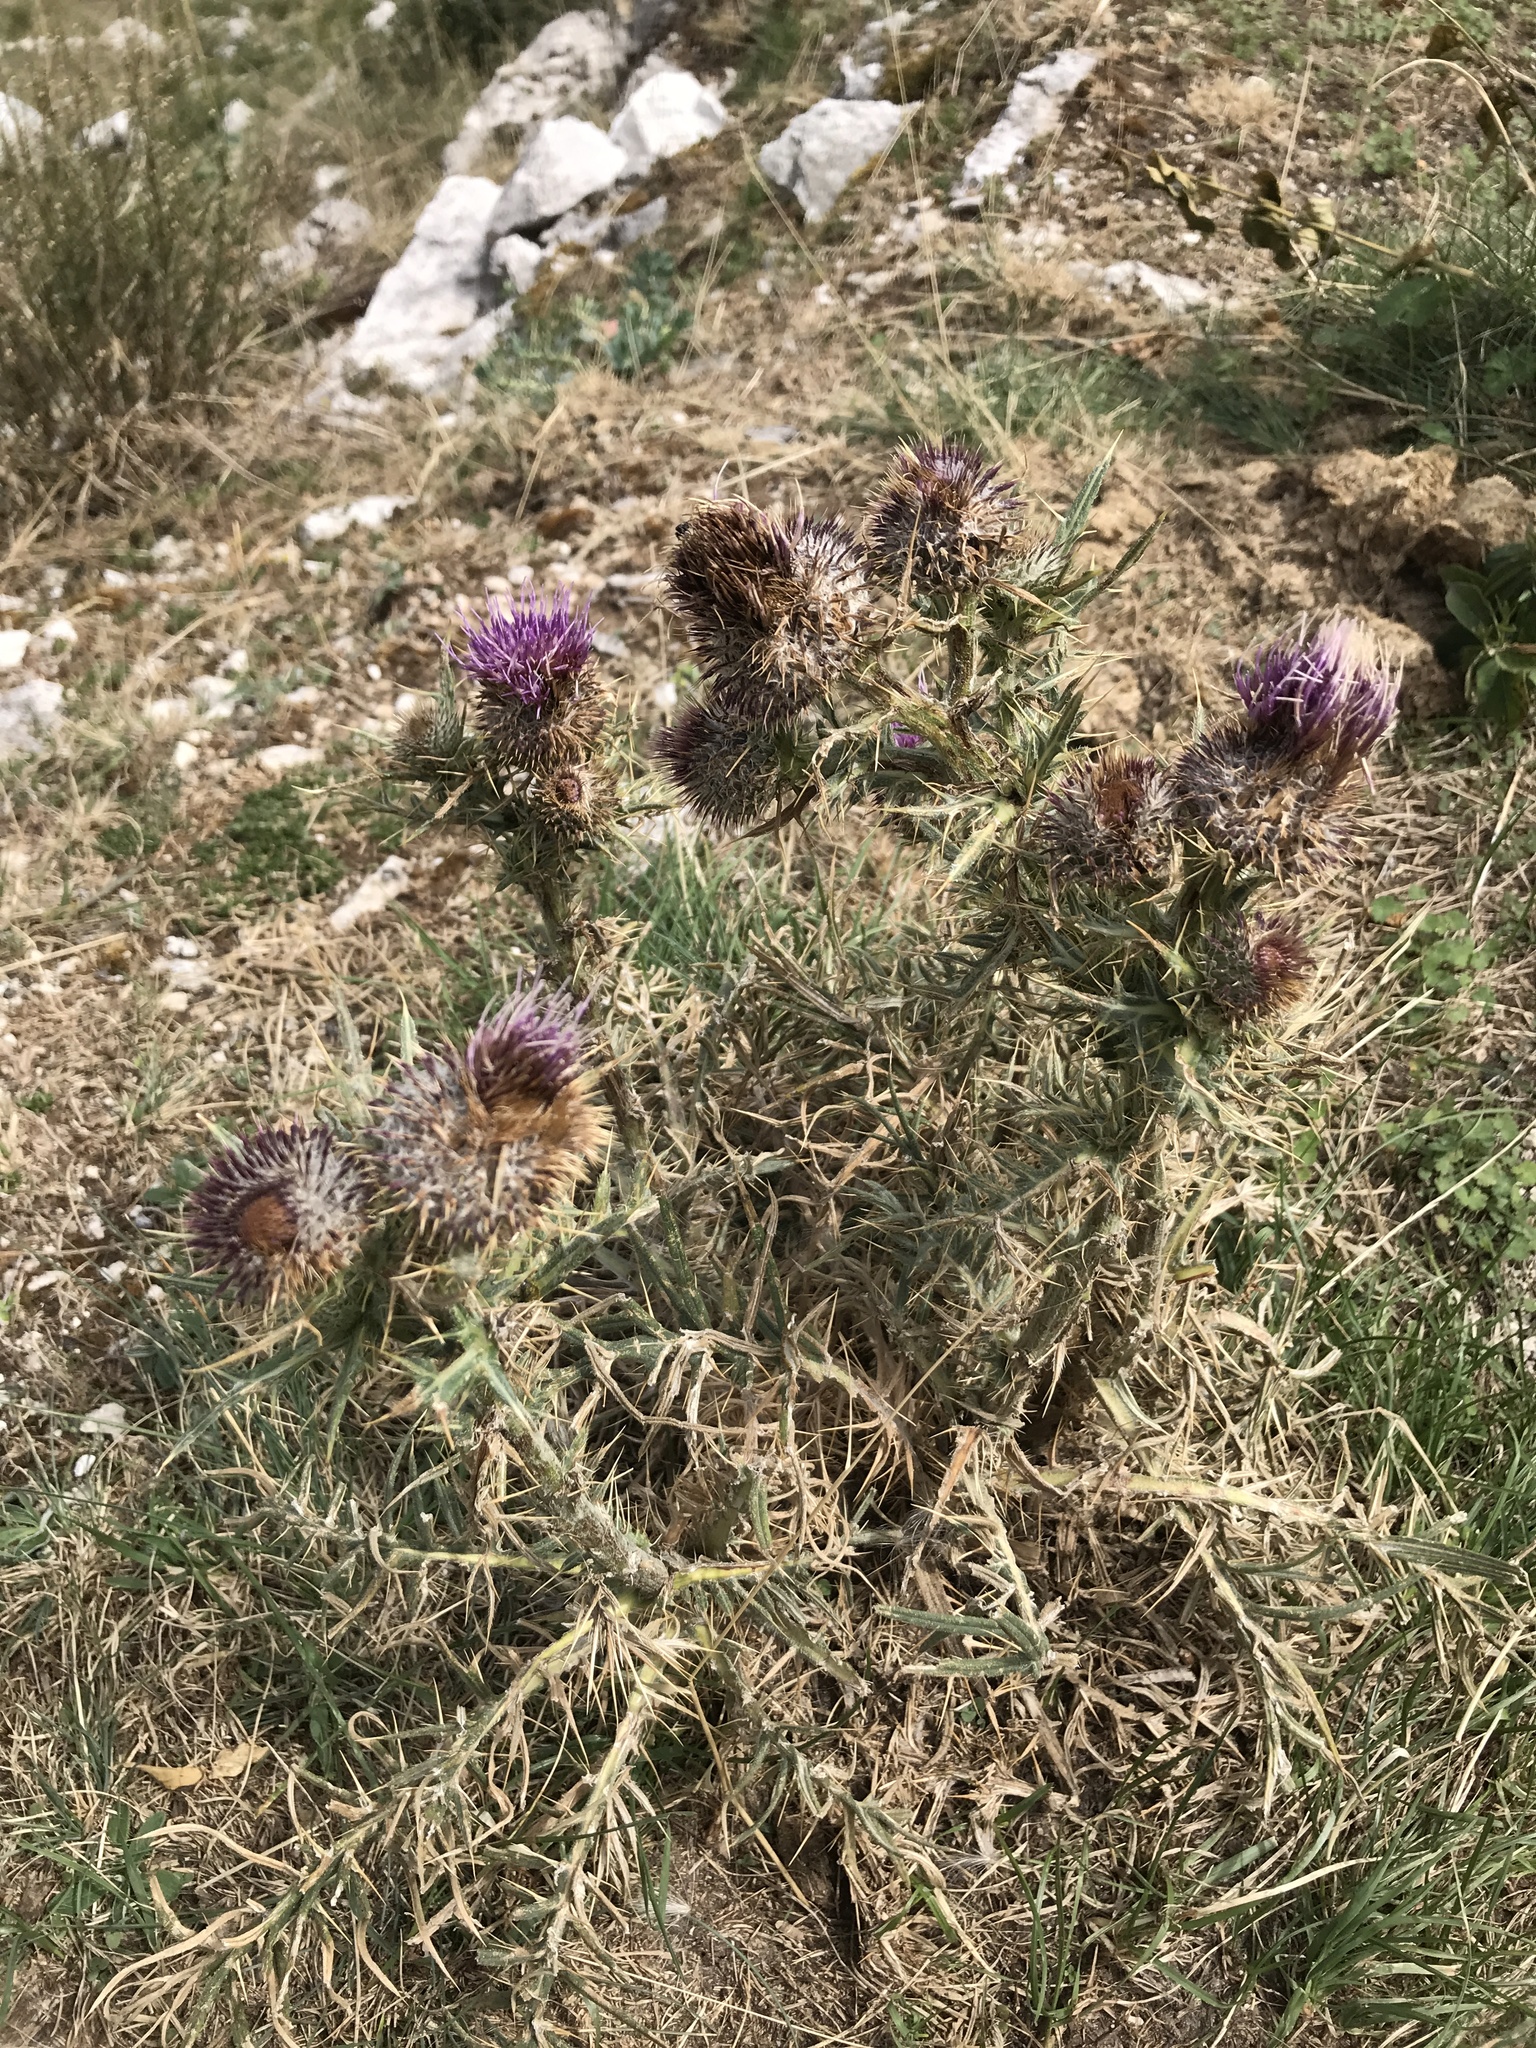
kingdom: Plantae
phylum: Tracheophyta
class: Magnoliopsida
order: Asterales
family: Asteraceae
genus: Lophiolepis
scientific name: Lophiolepis tenoreana
